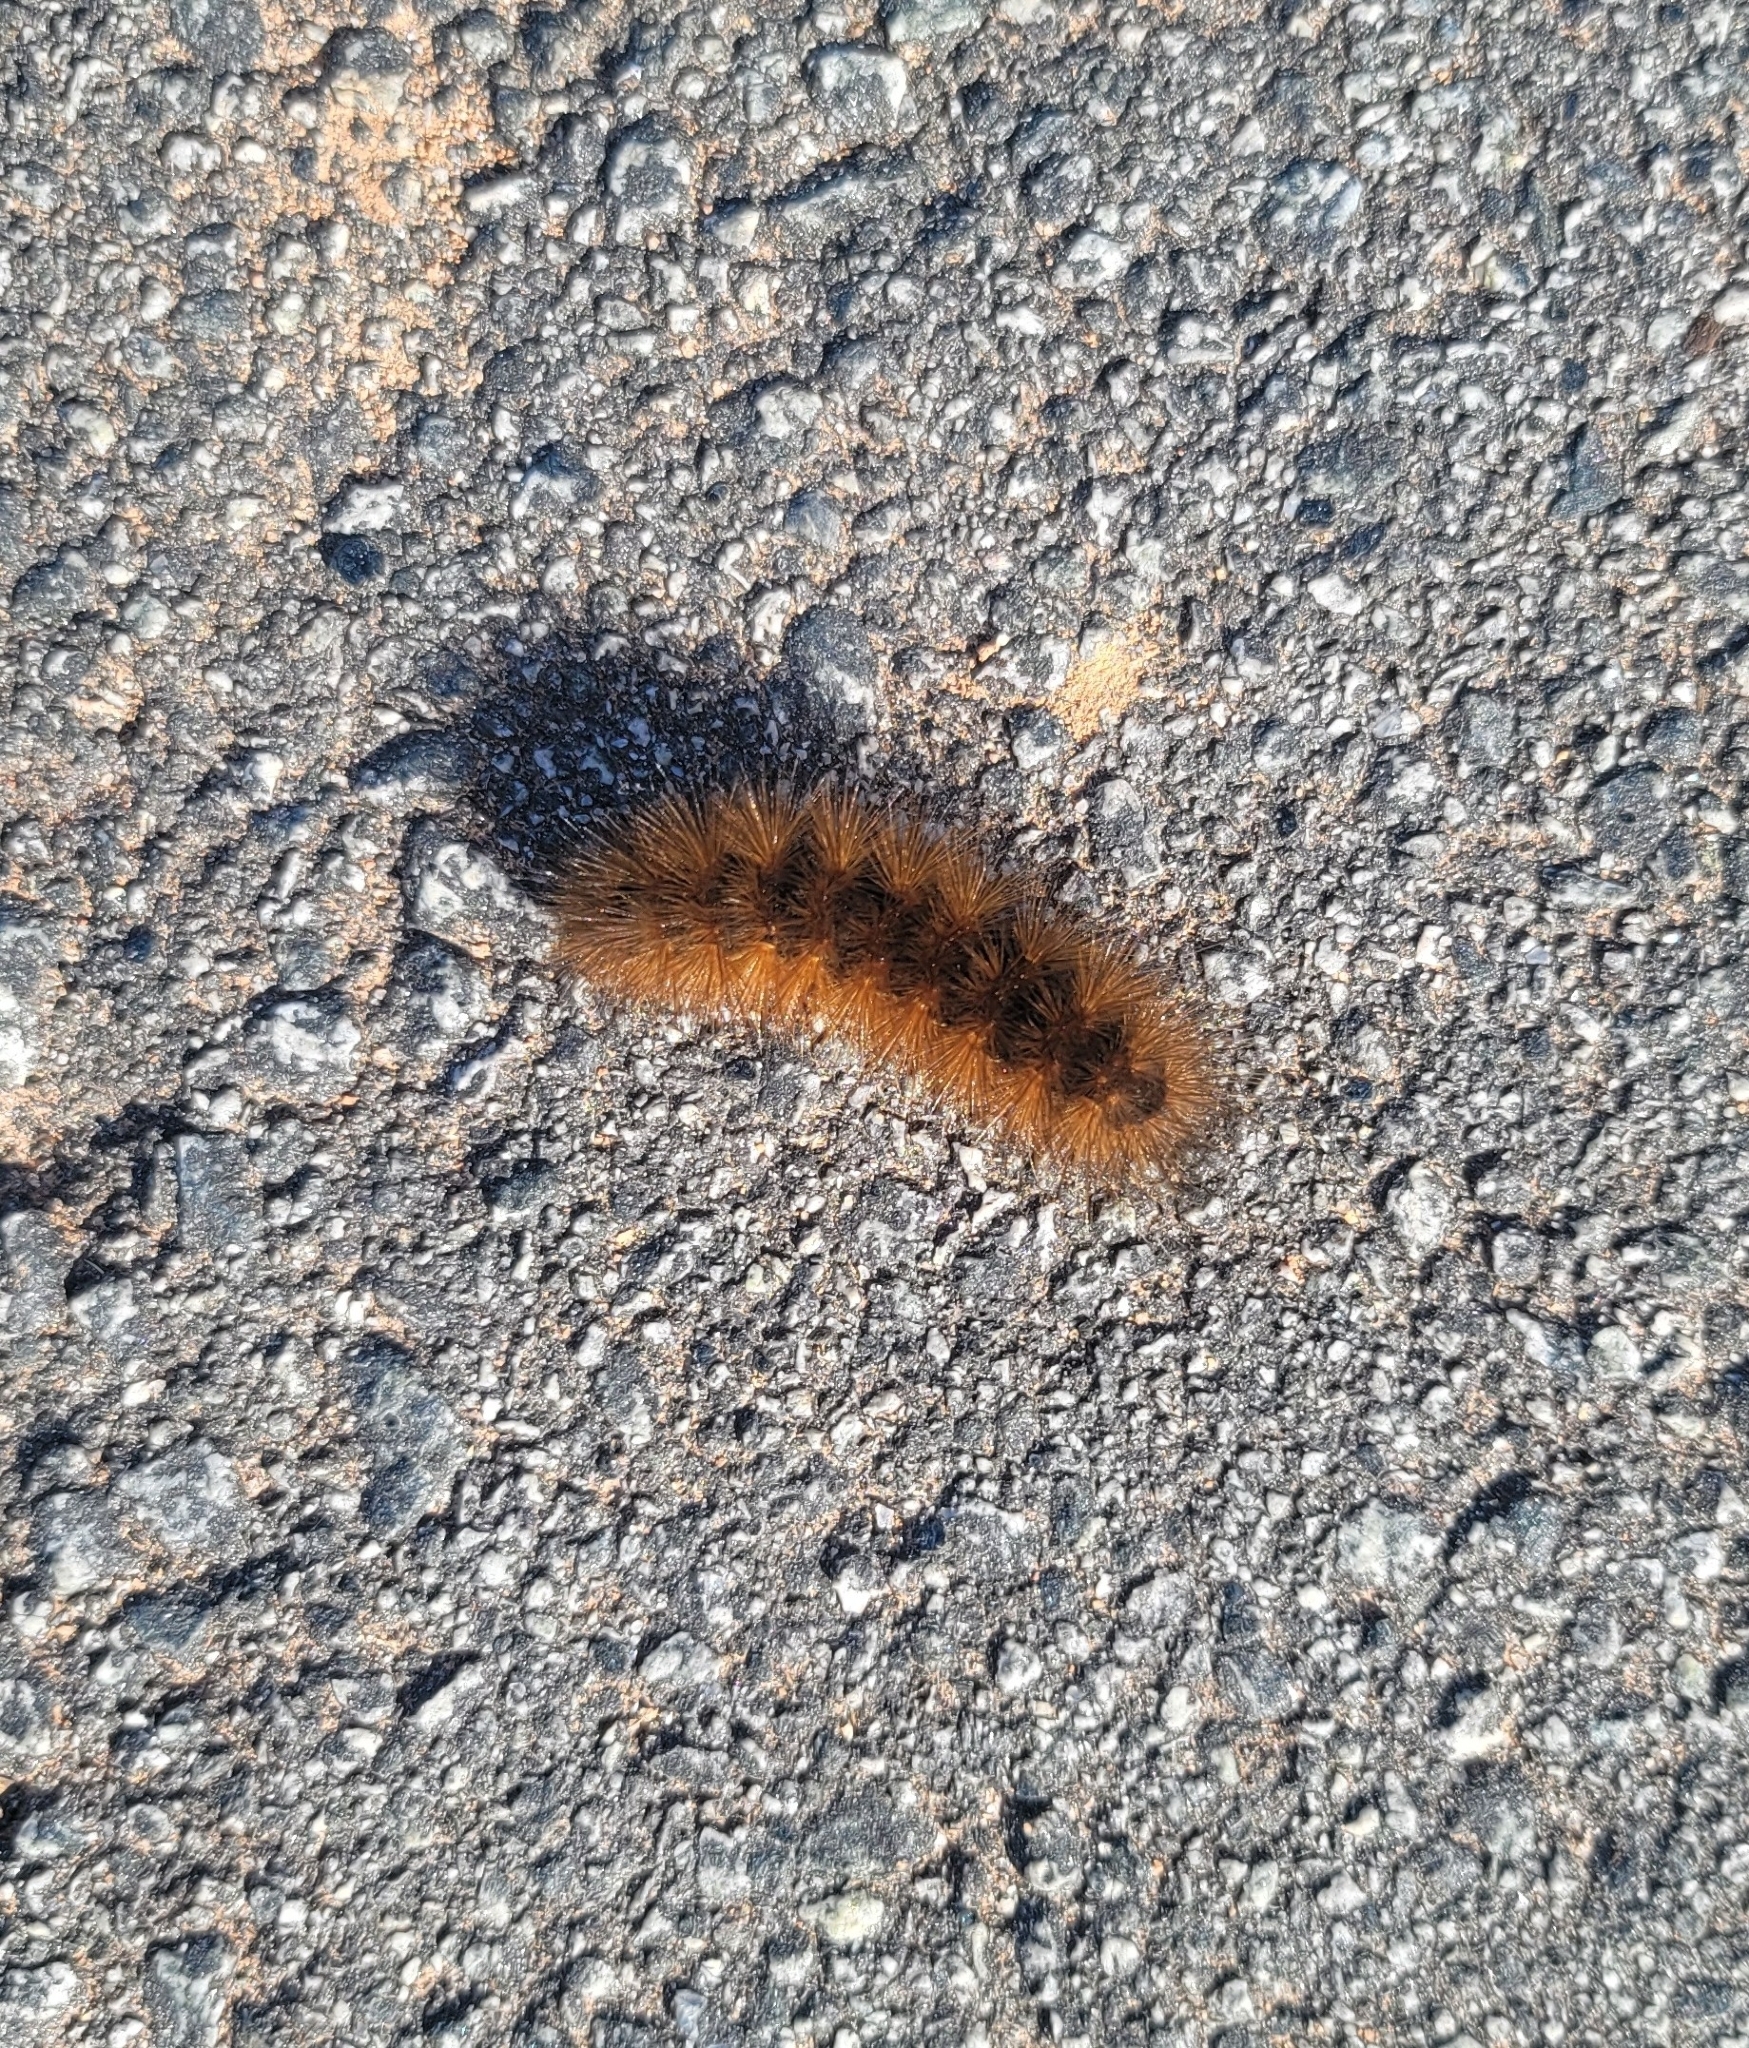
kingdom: Animalia
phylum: Arthropoda
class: Insecta
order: Lepidoptera
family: Erebidae
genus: Estigmene
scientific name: Estigmene acrea
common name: Salt marsh moth
